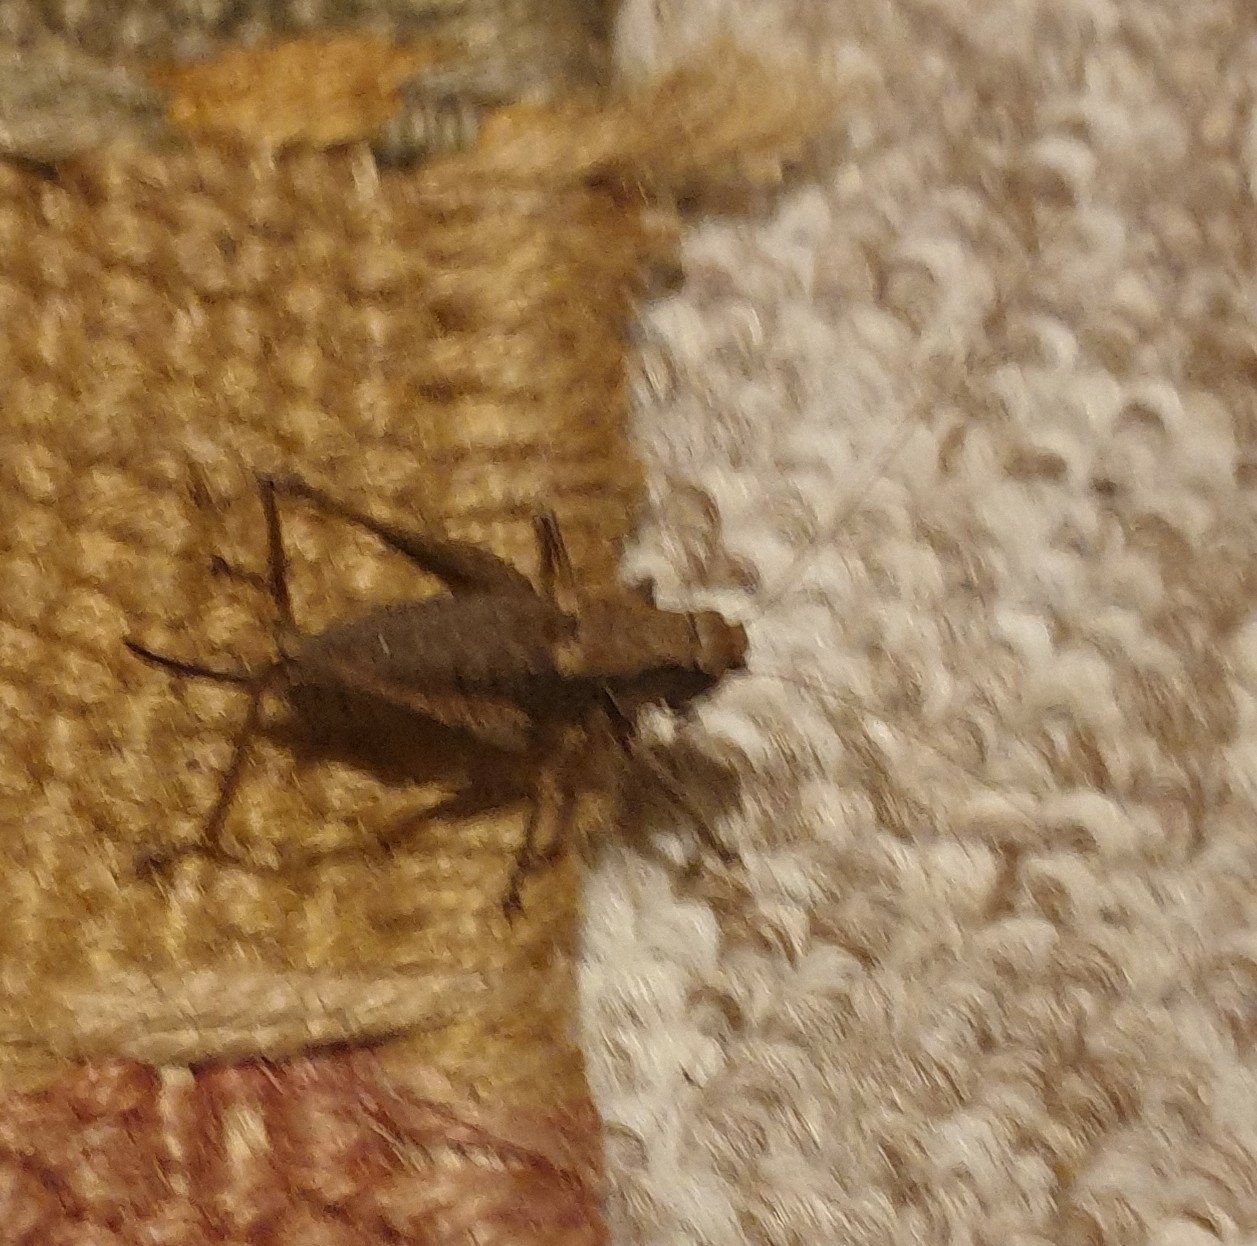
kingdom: Animalia
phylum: Arthropoda
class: Insecta
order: Orthoptera
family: Tettigoniidae
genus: Pholidoptera
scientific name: Pholidoptera griseoaptera
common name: Dark bush-cricket
